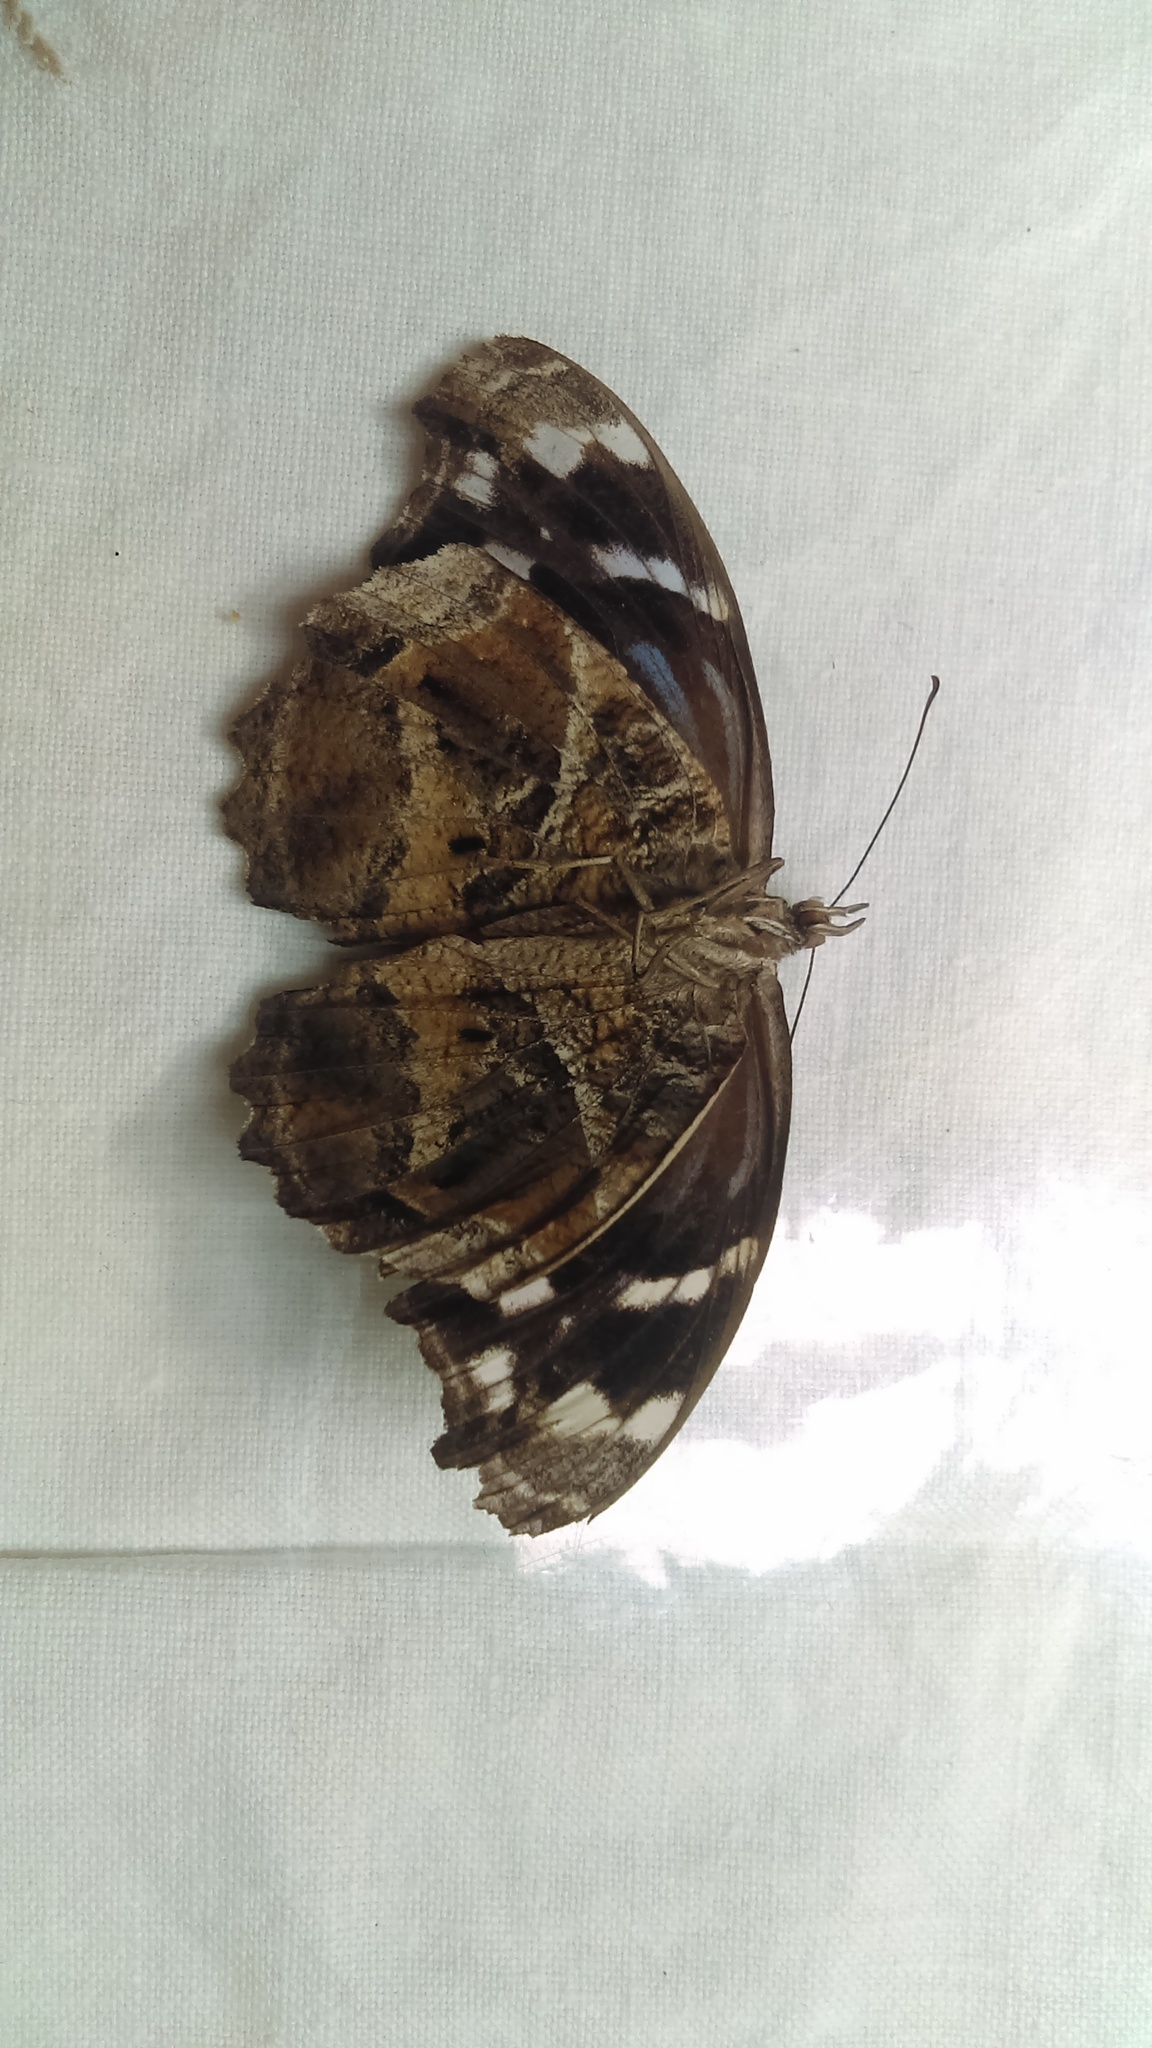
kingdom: Animalia
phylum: Arthropoda
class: Insecta
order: Lepidoptera
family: Nymphalidae
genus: Myscelia
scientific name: Myscelia ethusa
